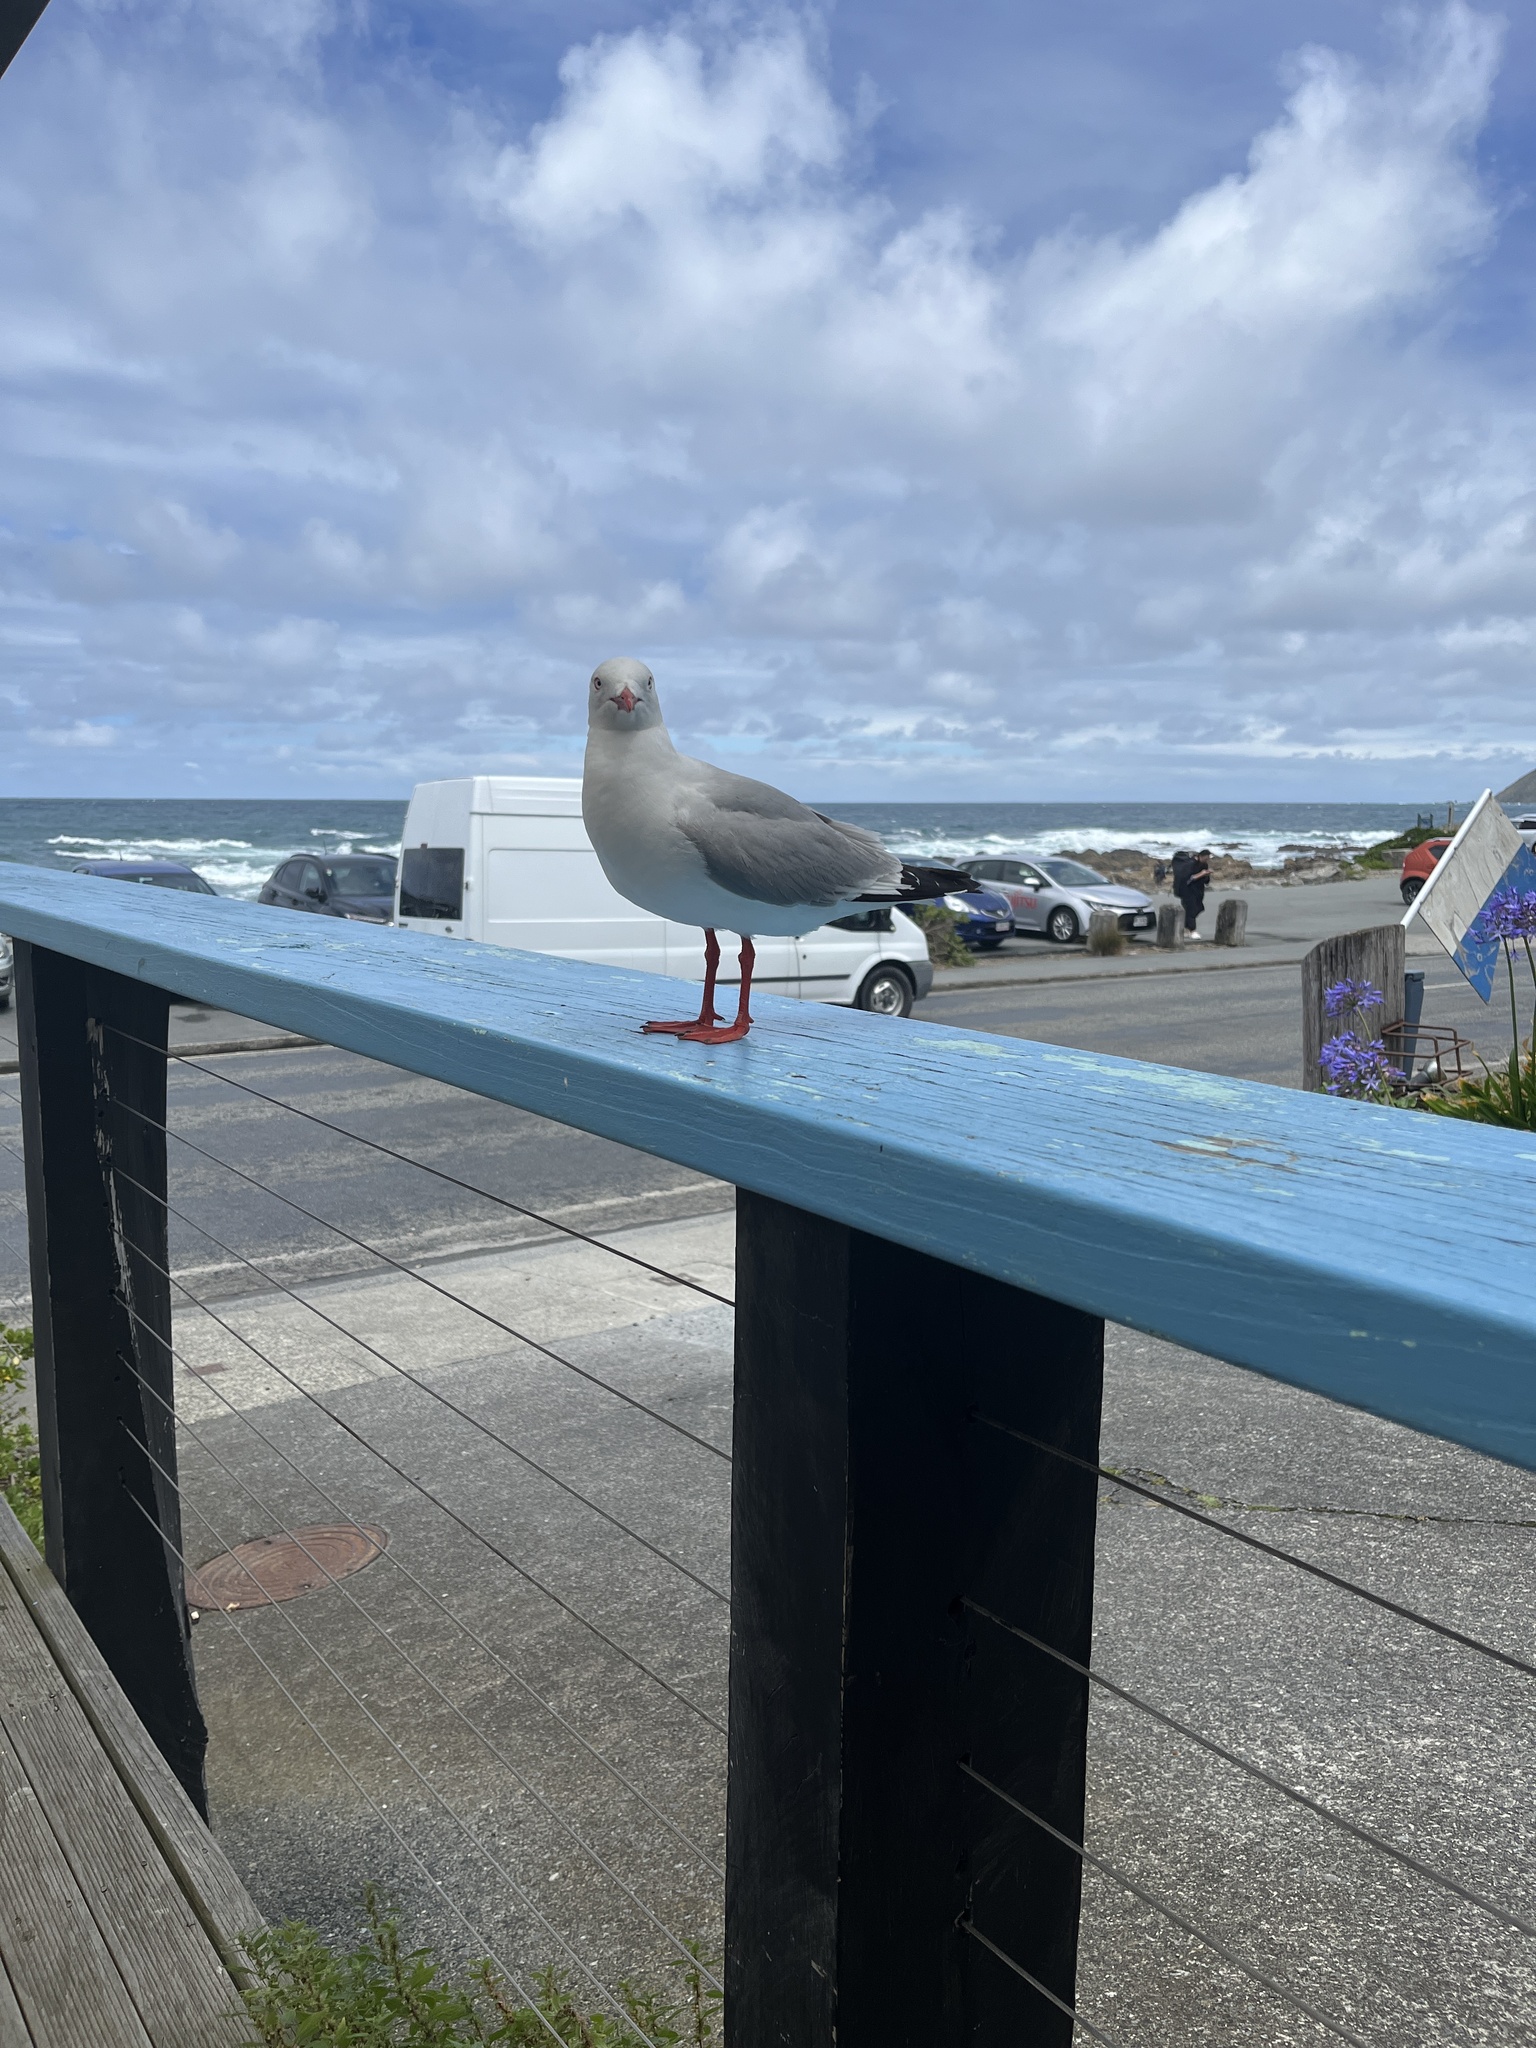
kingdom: Animalia
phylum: Chordata
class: Aves
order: Charadriiformes
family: Laridae
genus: Chroicocephalus
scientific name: Chroicocephalus novaehollandiae
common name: Silver gull
